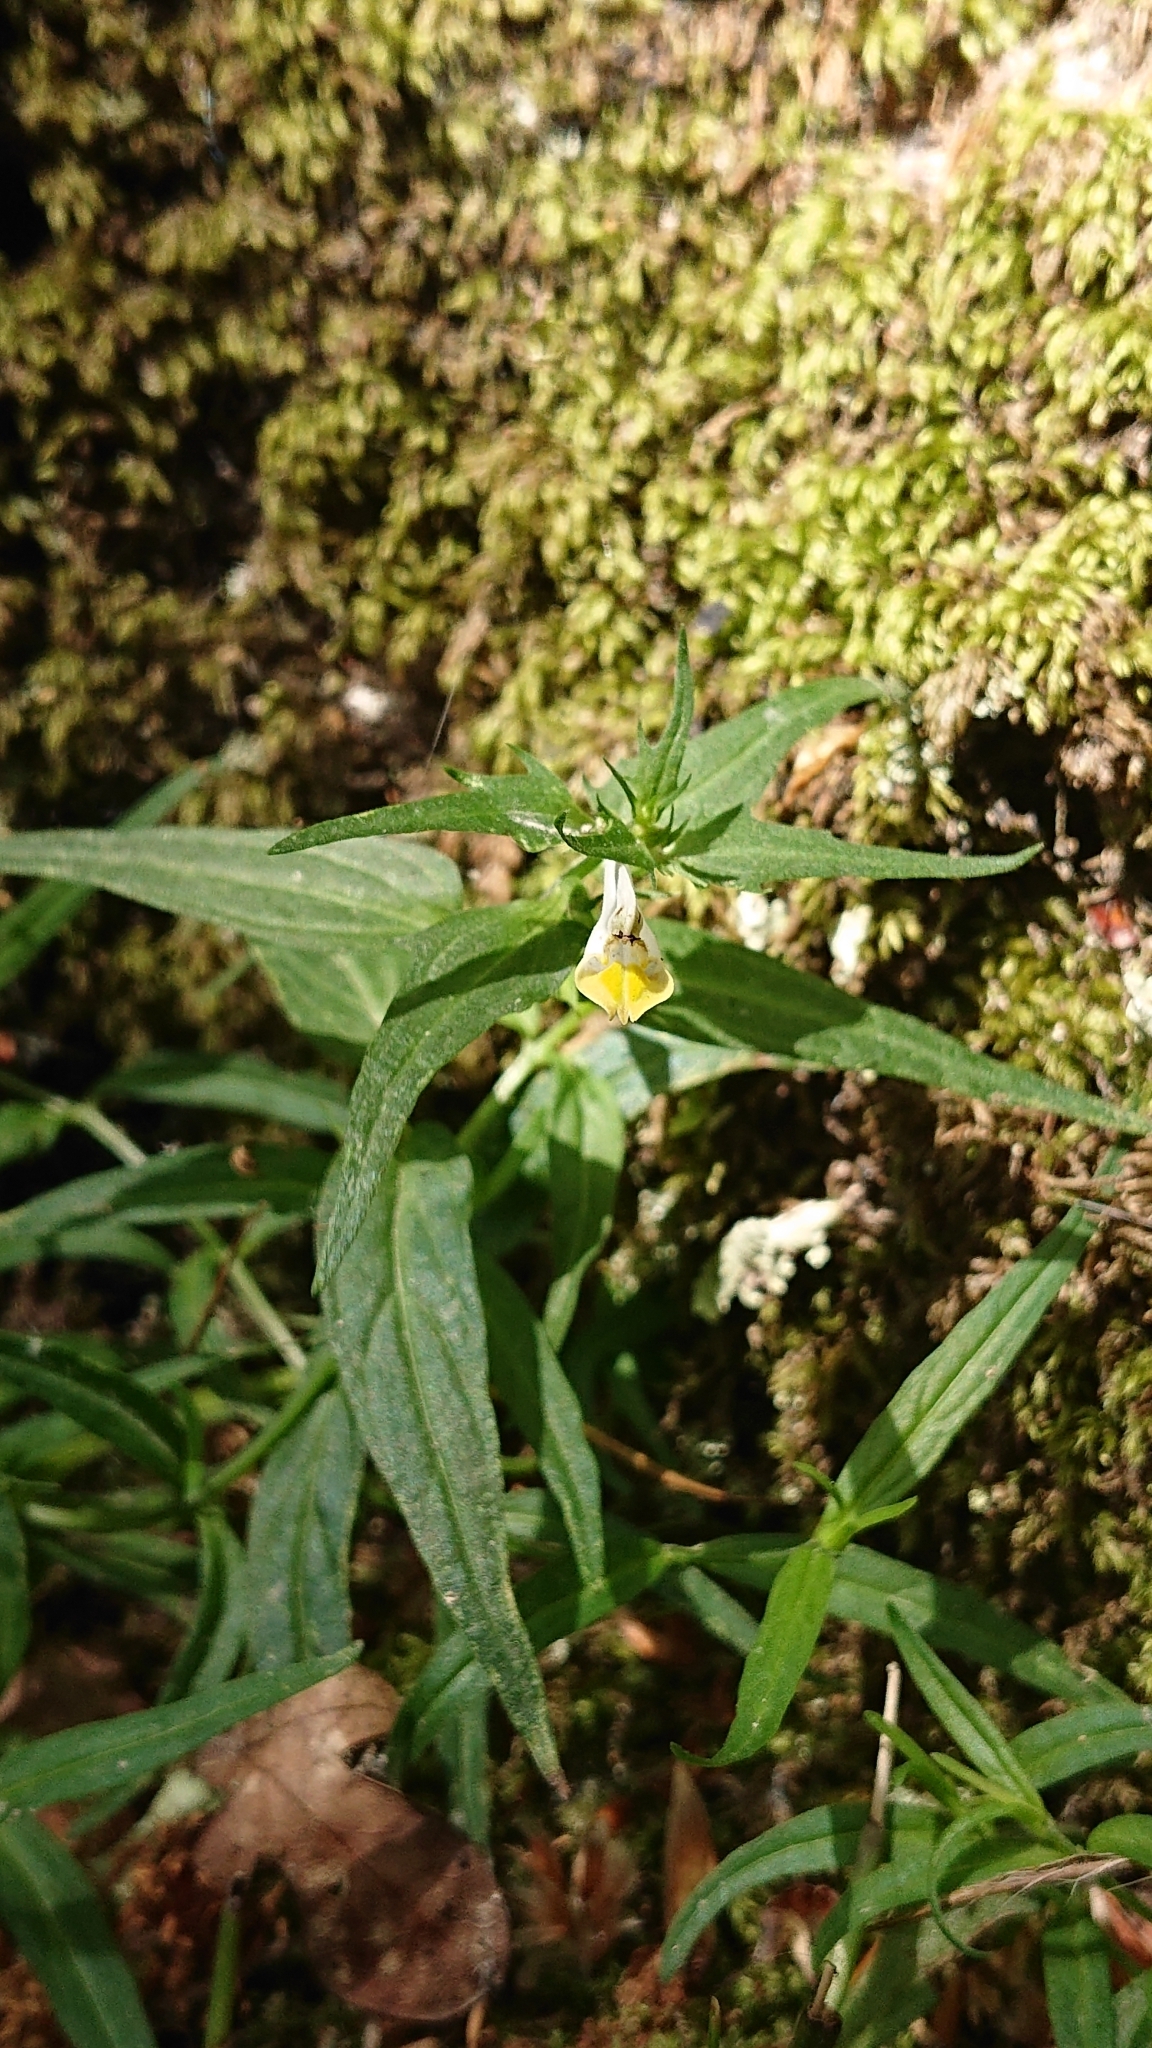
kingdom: Plantae
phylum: Tracheophyta
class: Magnoliopsida
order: Lamiales
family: Orobanchaceae
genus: Melampyrum
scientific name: Melampyrum pratense
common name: Common cow-wheat
